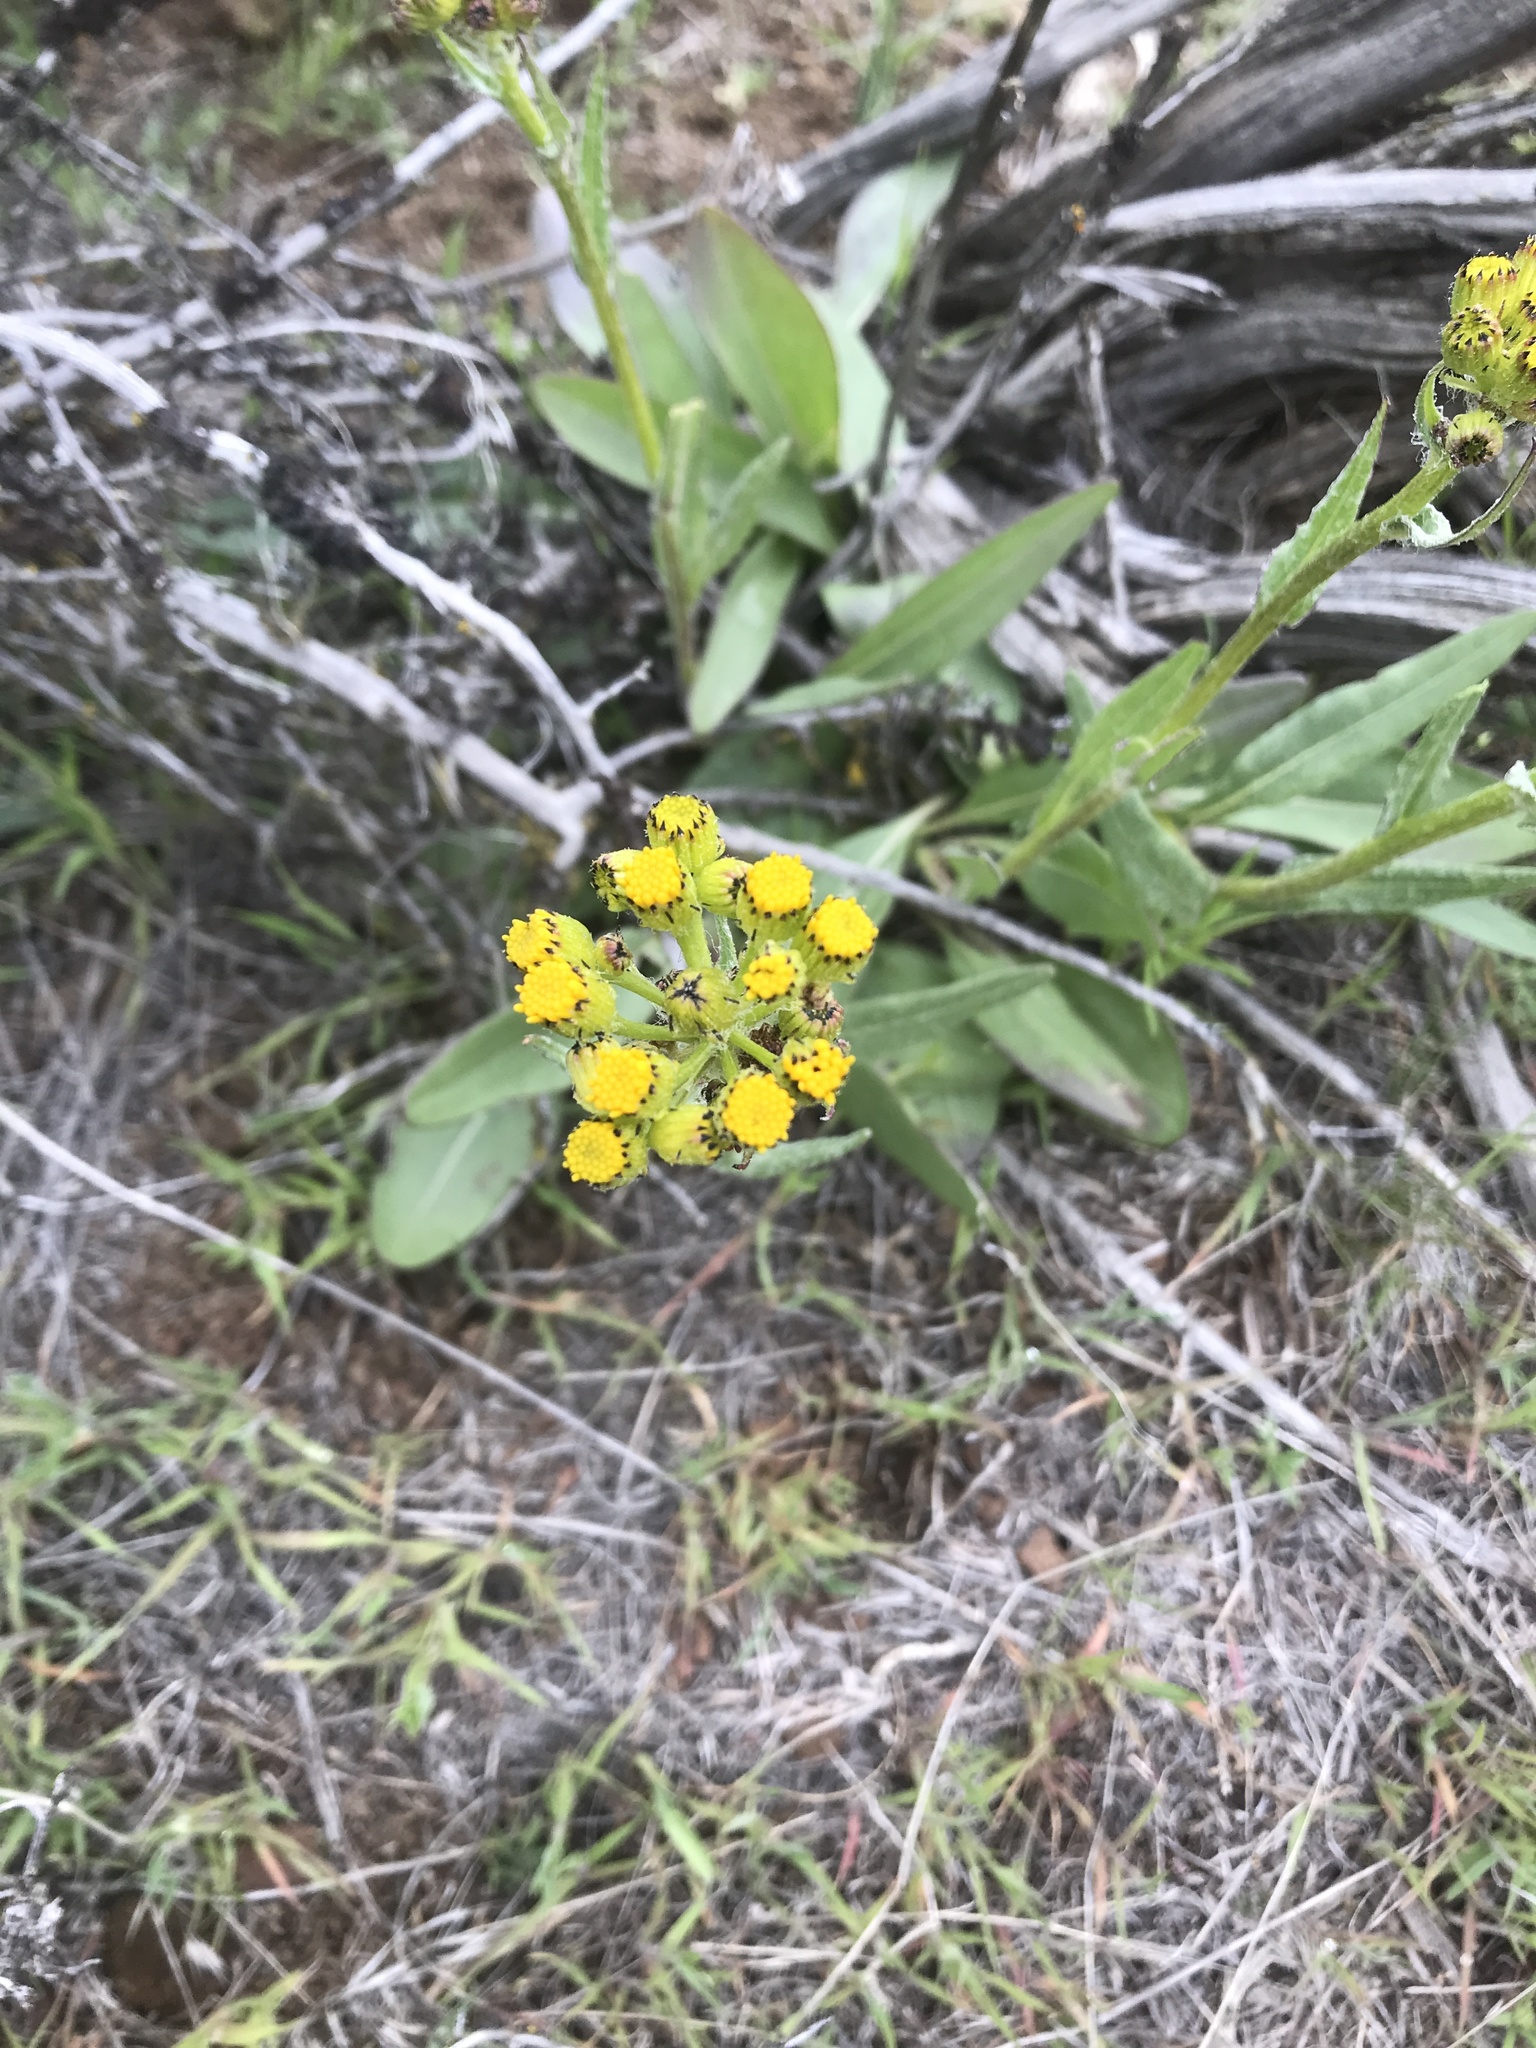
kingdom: Plantae
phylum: Tracheophyta
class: Magnoliopsida
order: Asterales
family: Asteraceae
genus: Senecio
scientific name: Senecio integerrimus
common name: Gaugeplant
